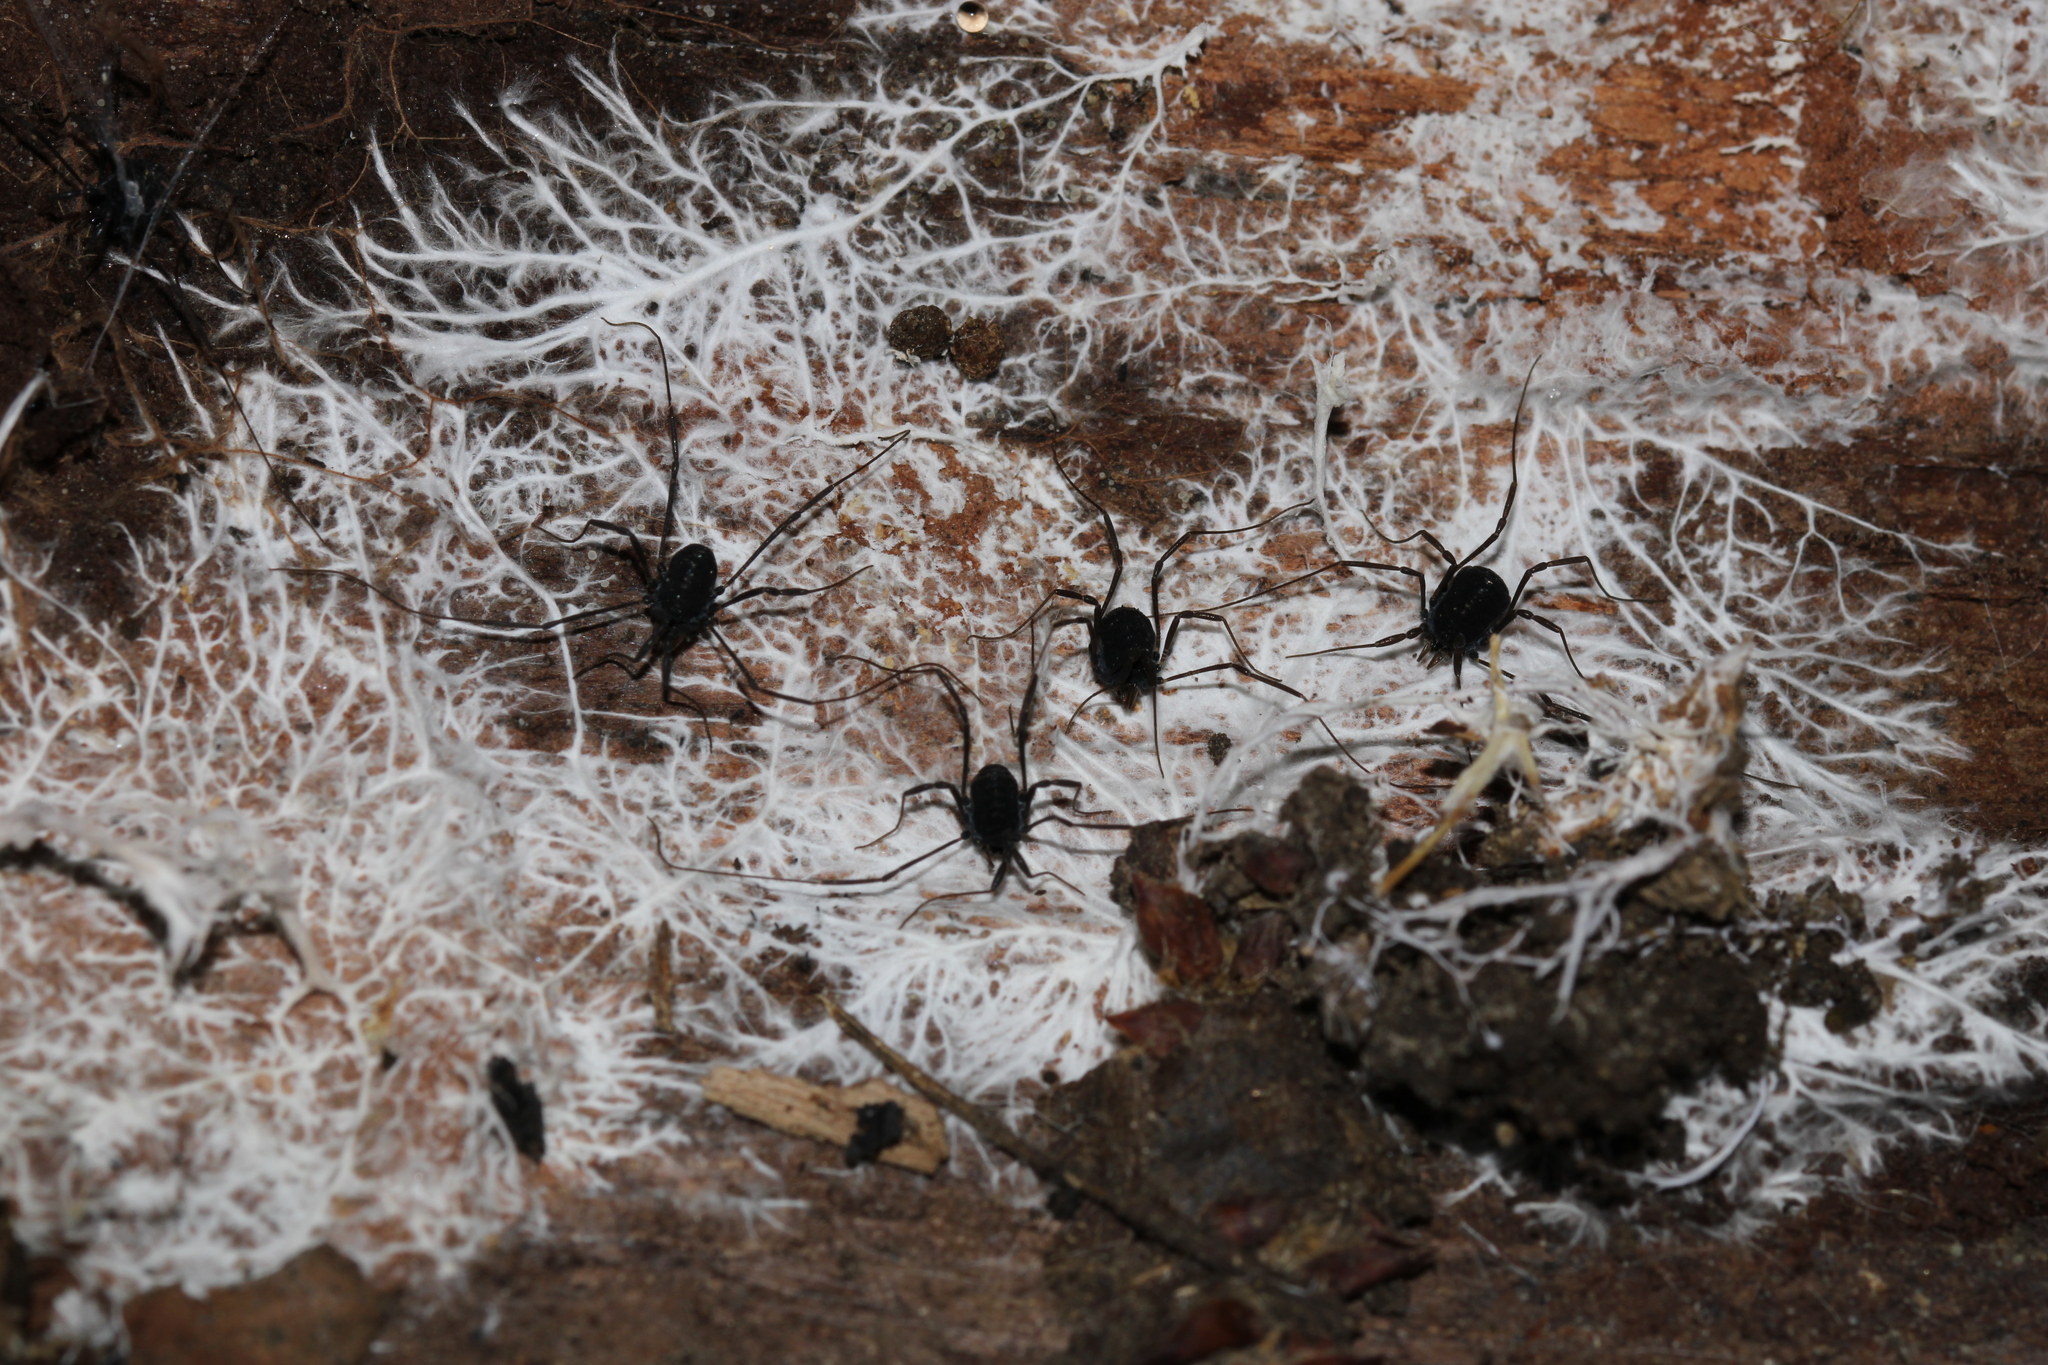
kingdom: Animalia
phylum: Arthropoda
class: Arachnida
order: Opiliones
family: Nemastomatidae
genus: Histricostoma
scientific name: Histricostoma dentipalpe
